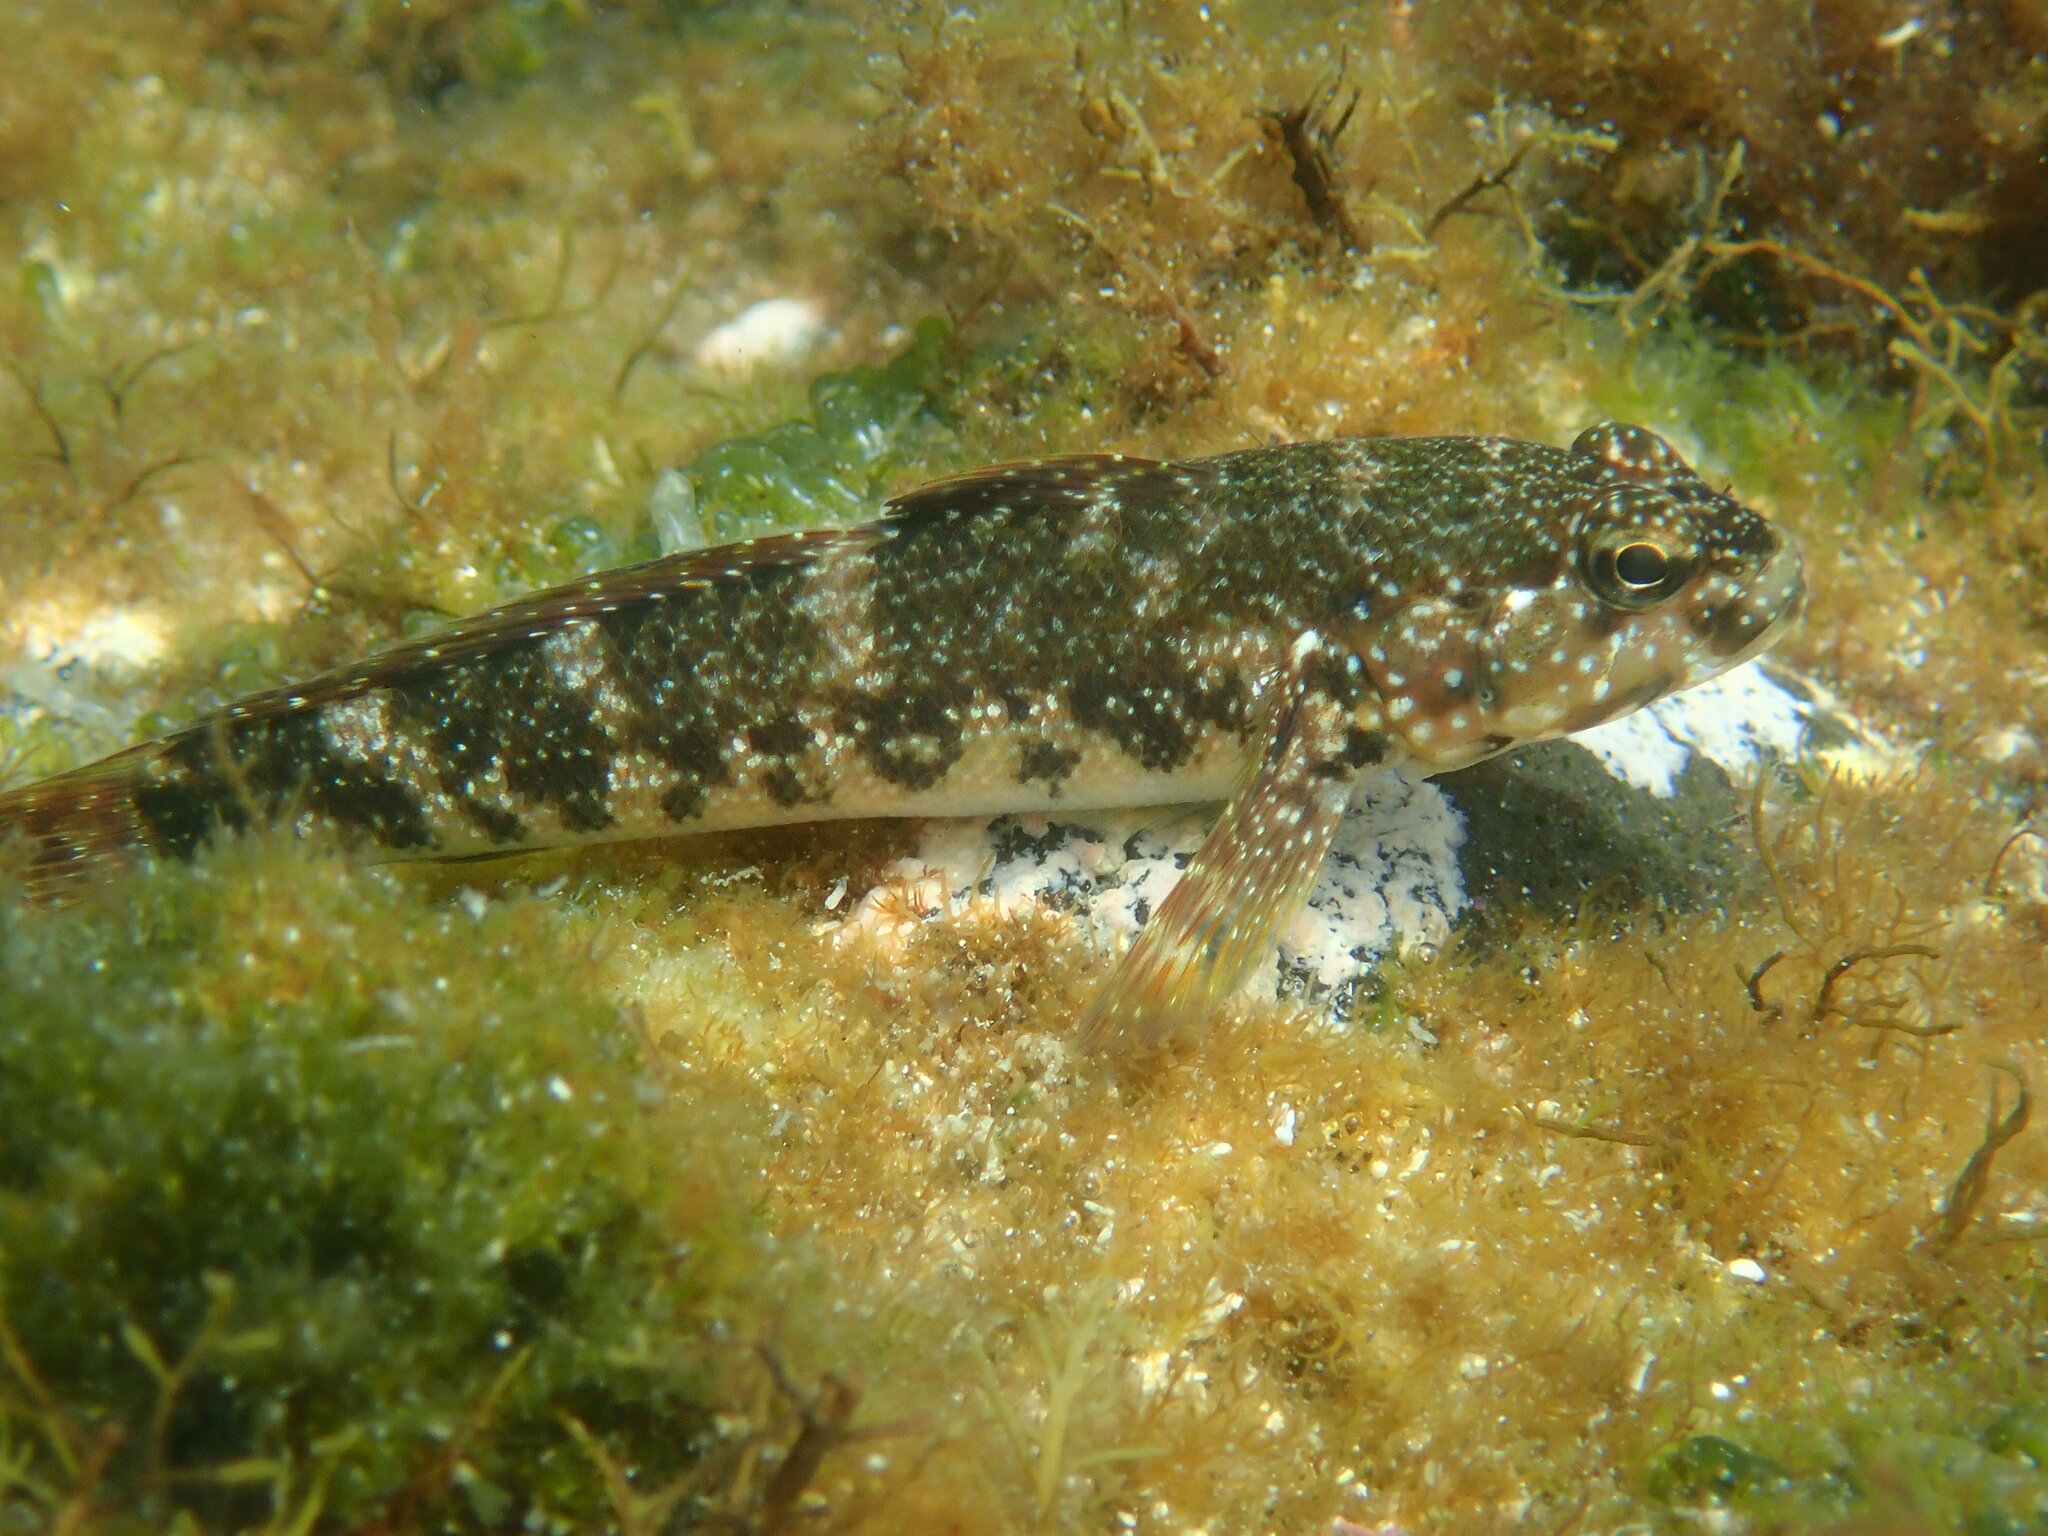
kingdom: Animalia
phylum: Chordata
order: Perciformes
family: Gobiidae
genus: Mauligobius
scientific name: Mauligobius maderensis
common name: Rock goby
